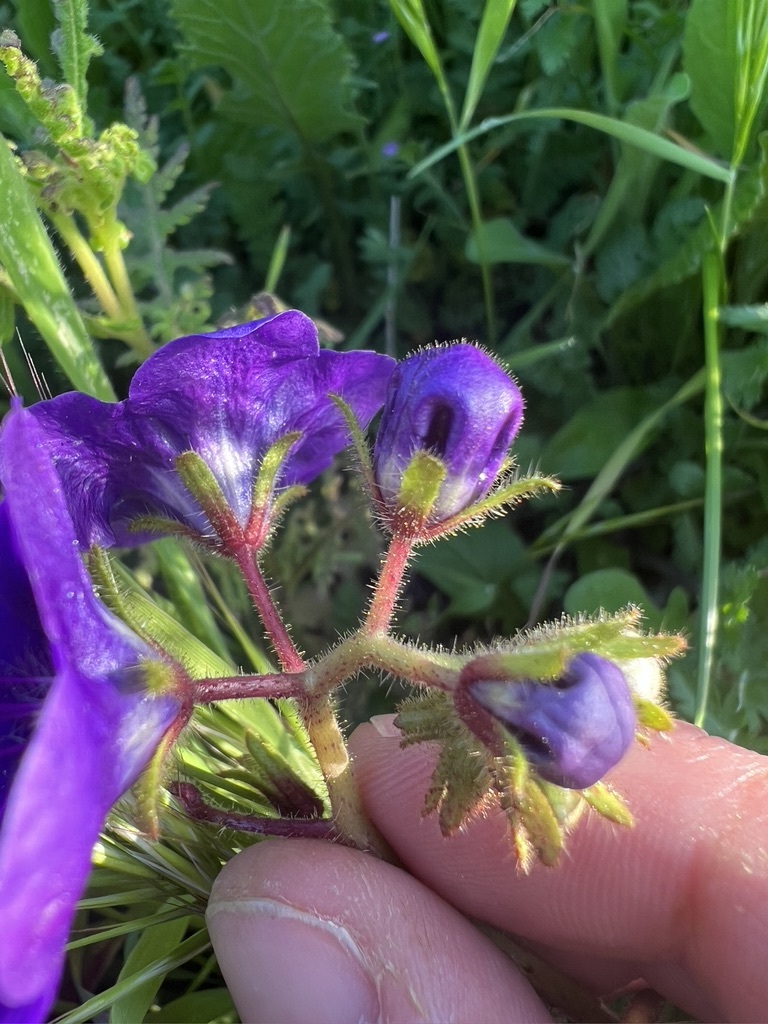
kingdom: Plantae
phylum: Tracheophyta
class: Magnoliopsida
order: Boraginales
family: Hydrophyllaceae
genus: Phacelia
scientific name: Phacelia parryi
